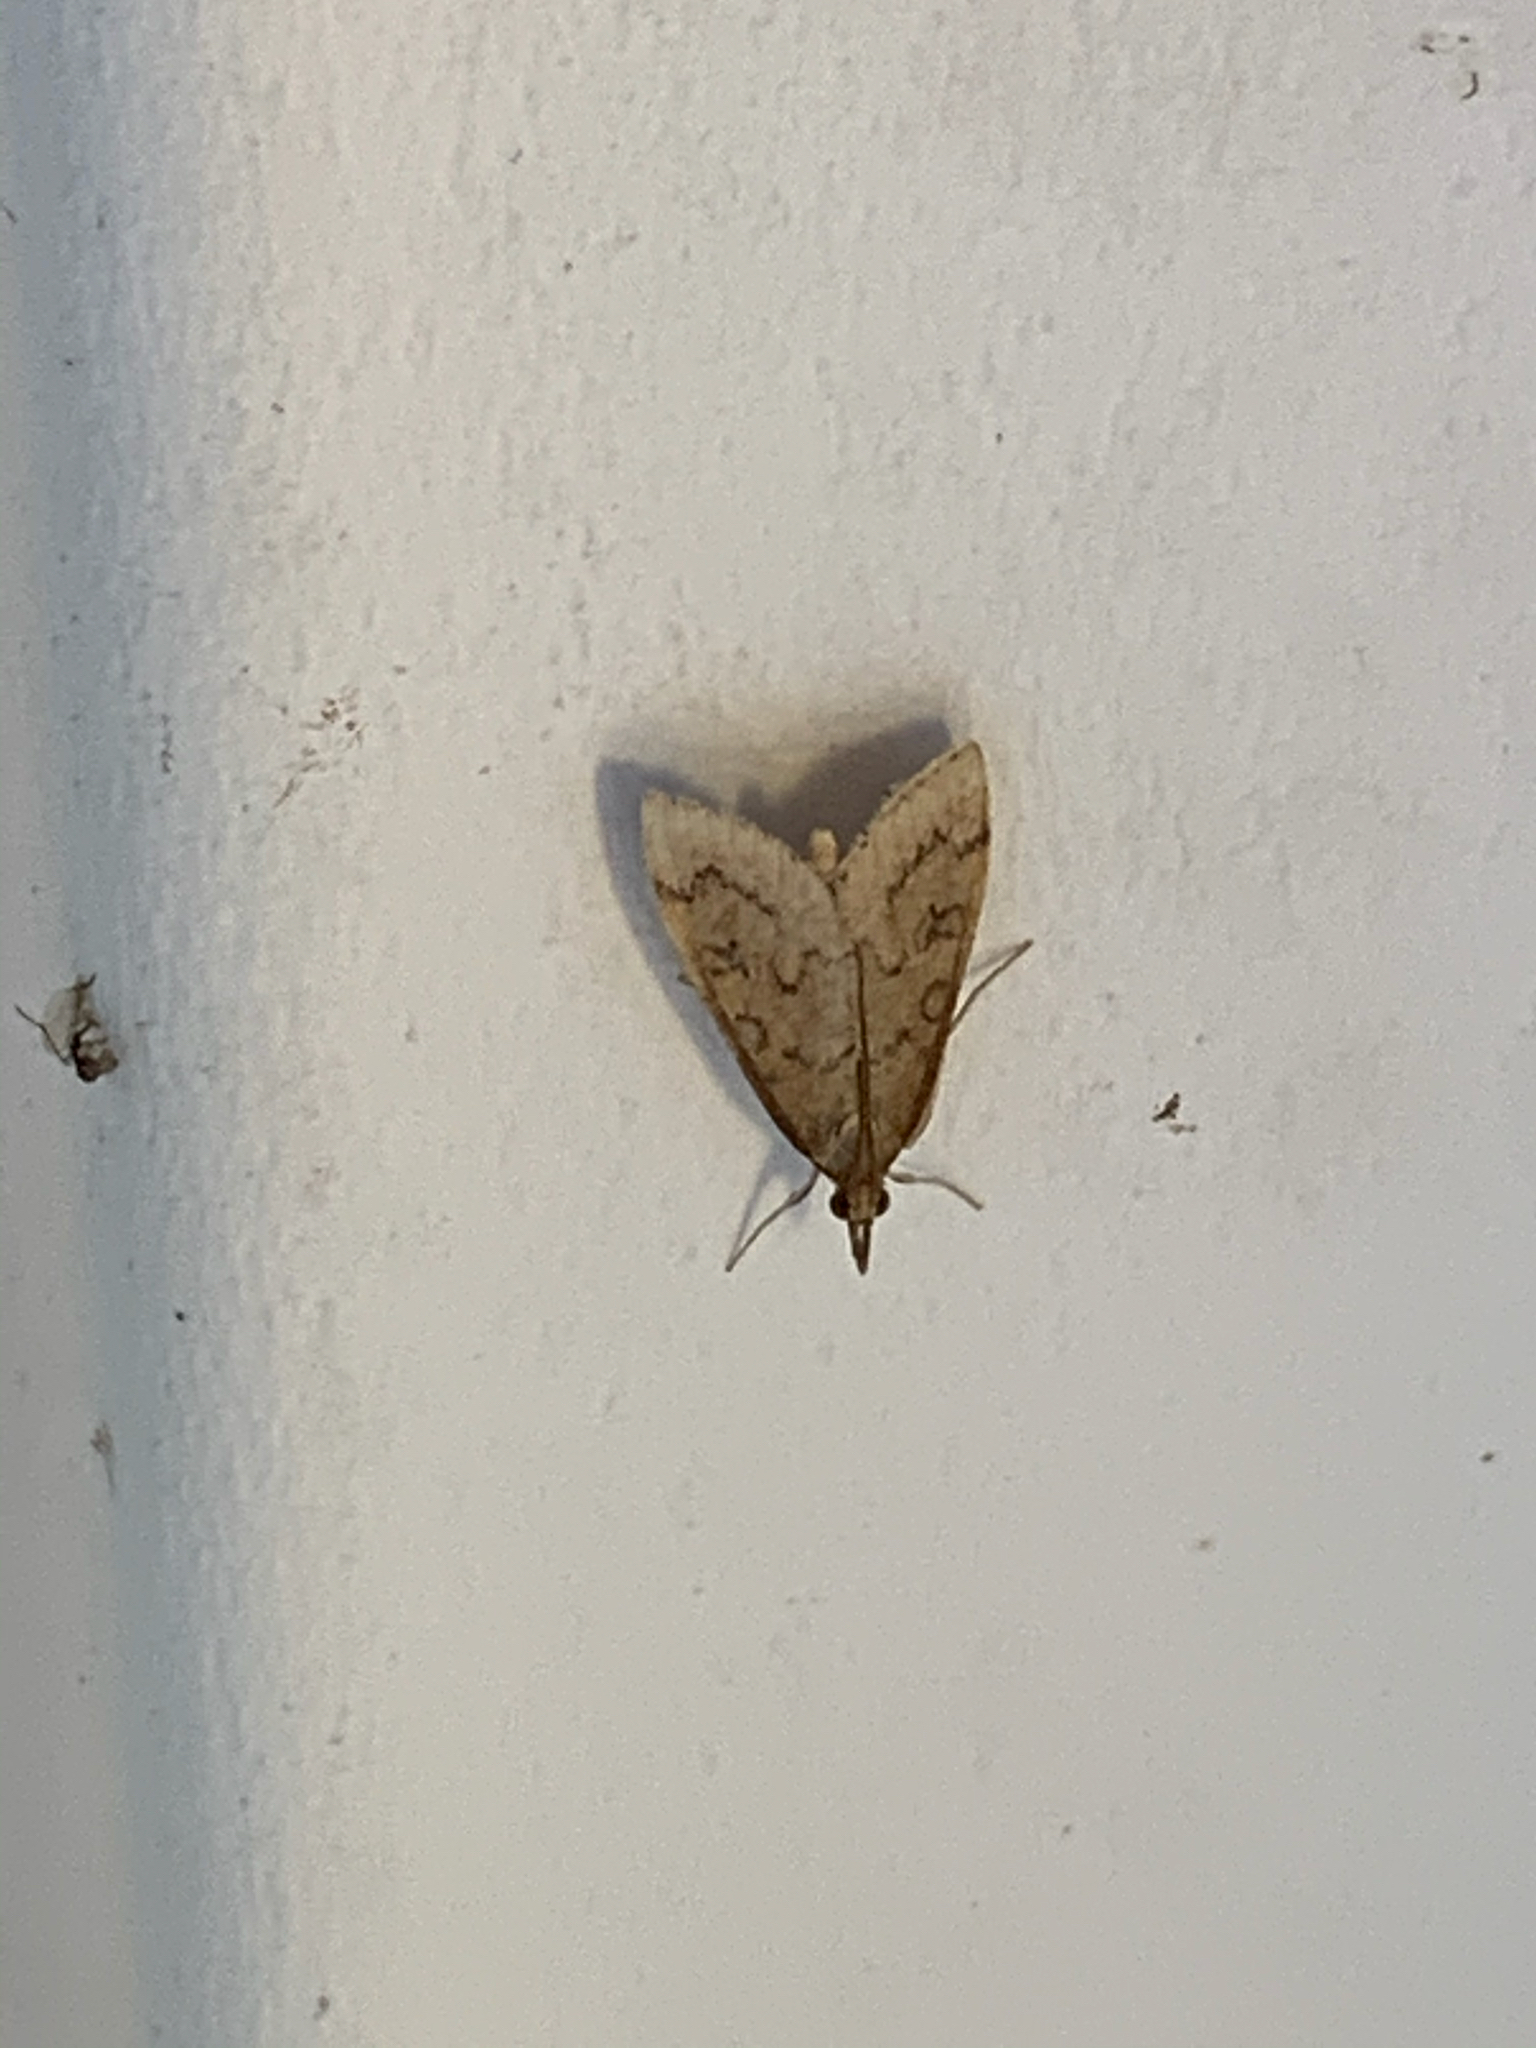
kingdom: Animalia
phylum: Arthropoda
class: Insecta
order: Lepidoptera
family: Crambidae
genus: Udea
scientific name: Udea rubigalis
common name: Celery leaftier moth
